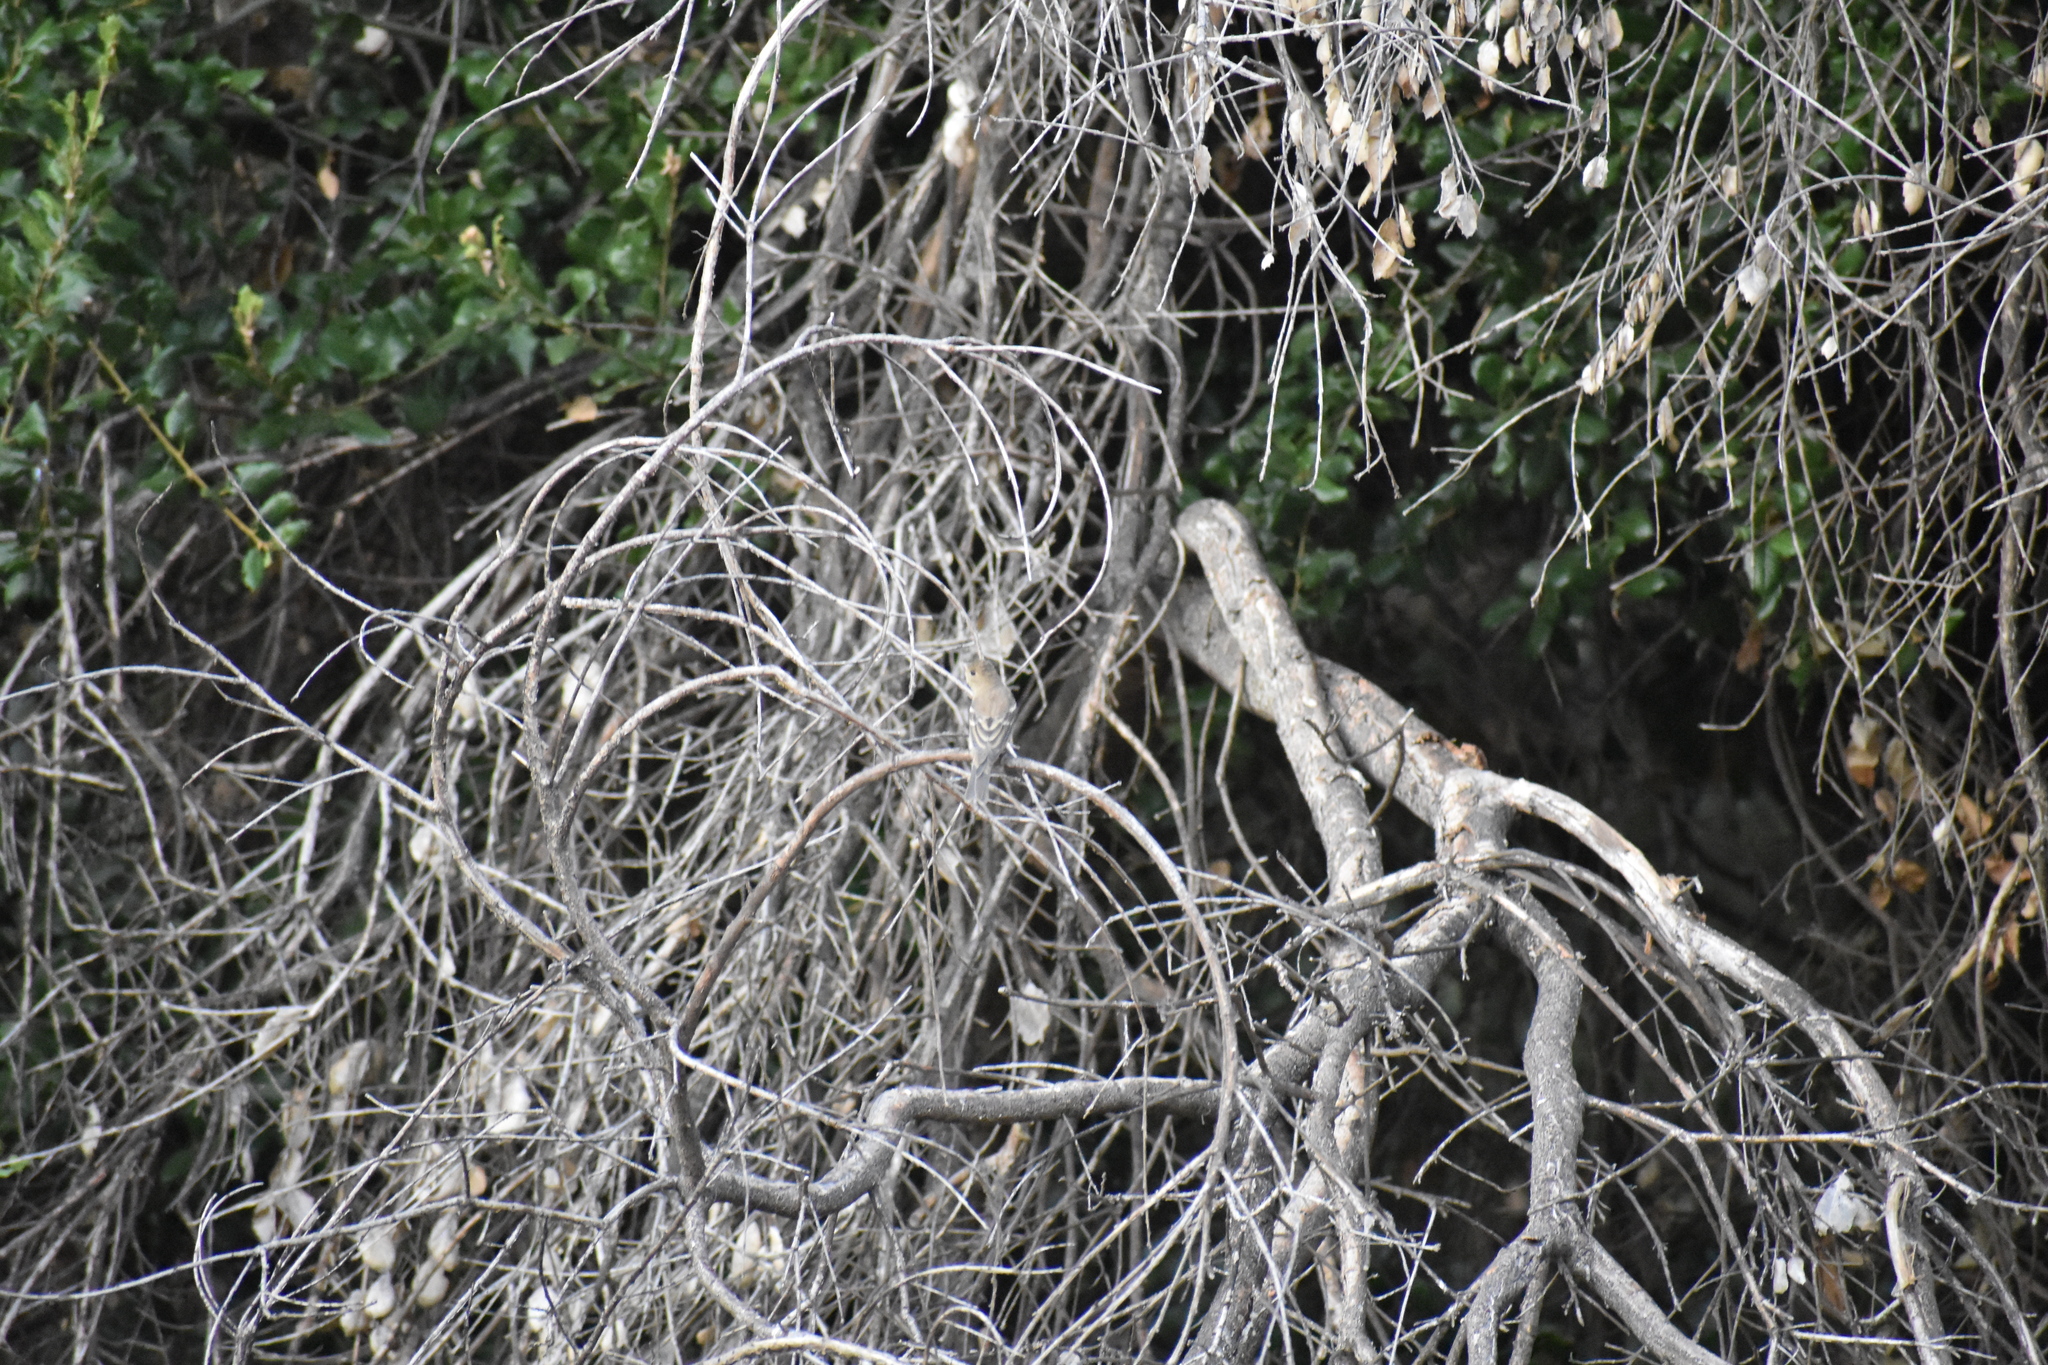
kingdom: Animalia
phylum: Chordata
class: Aves
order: Passeriformes
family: Cardinalidae
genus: Passerina
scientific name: Passerina amoena
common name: Lazuli bunting
